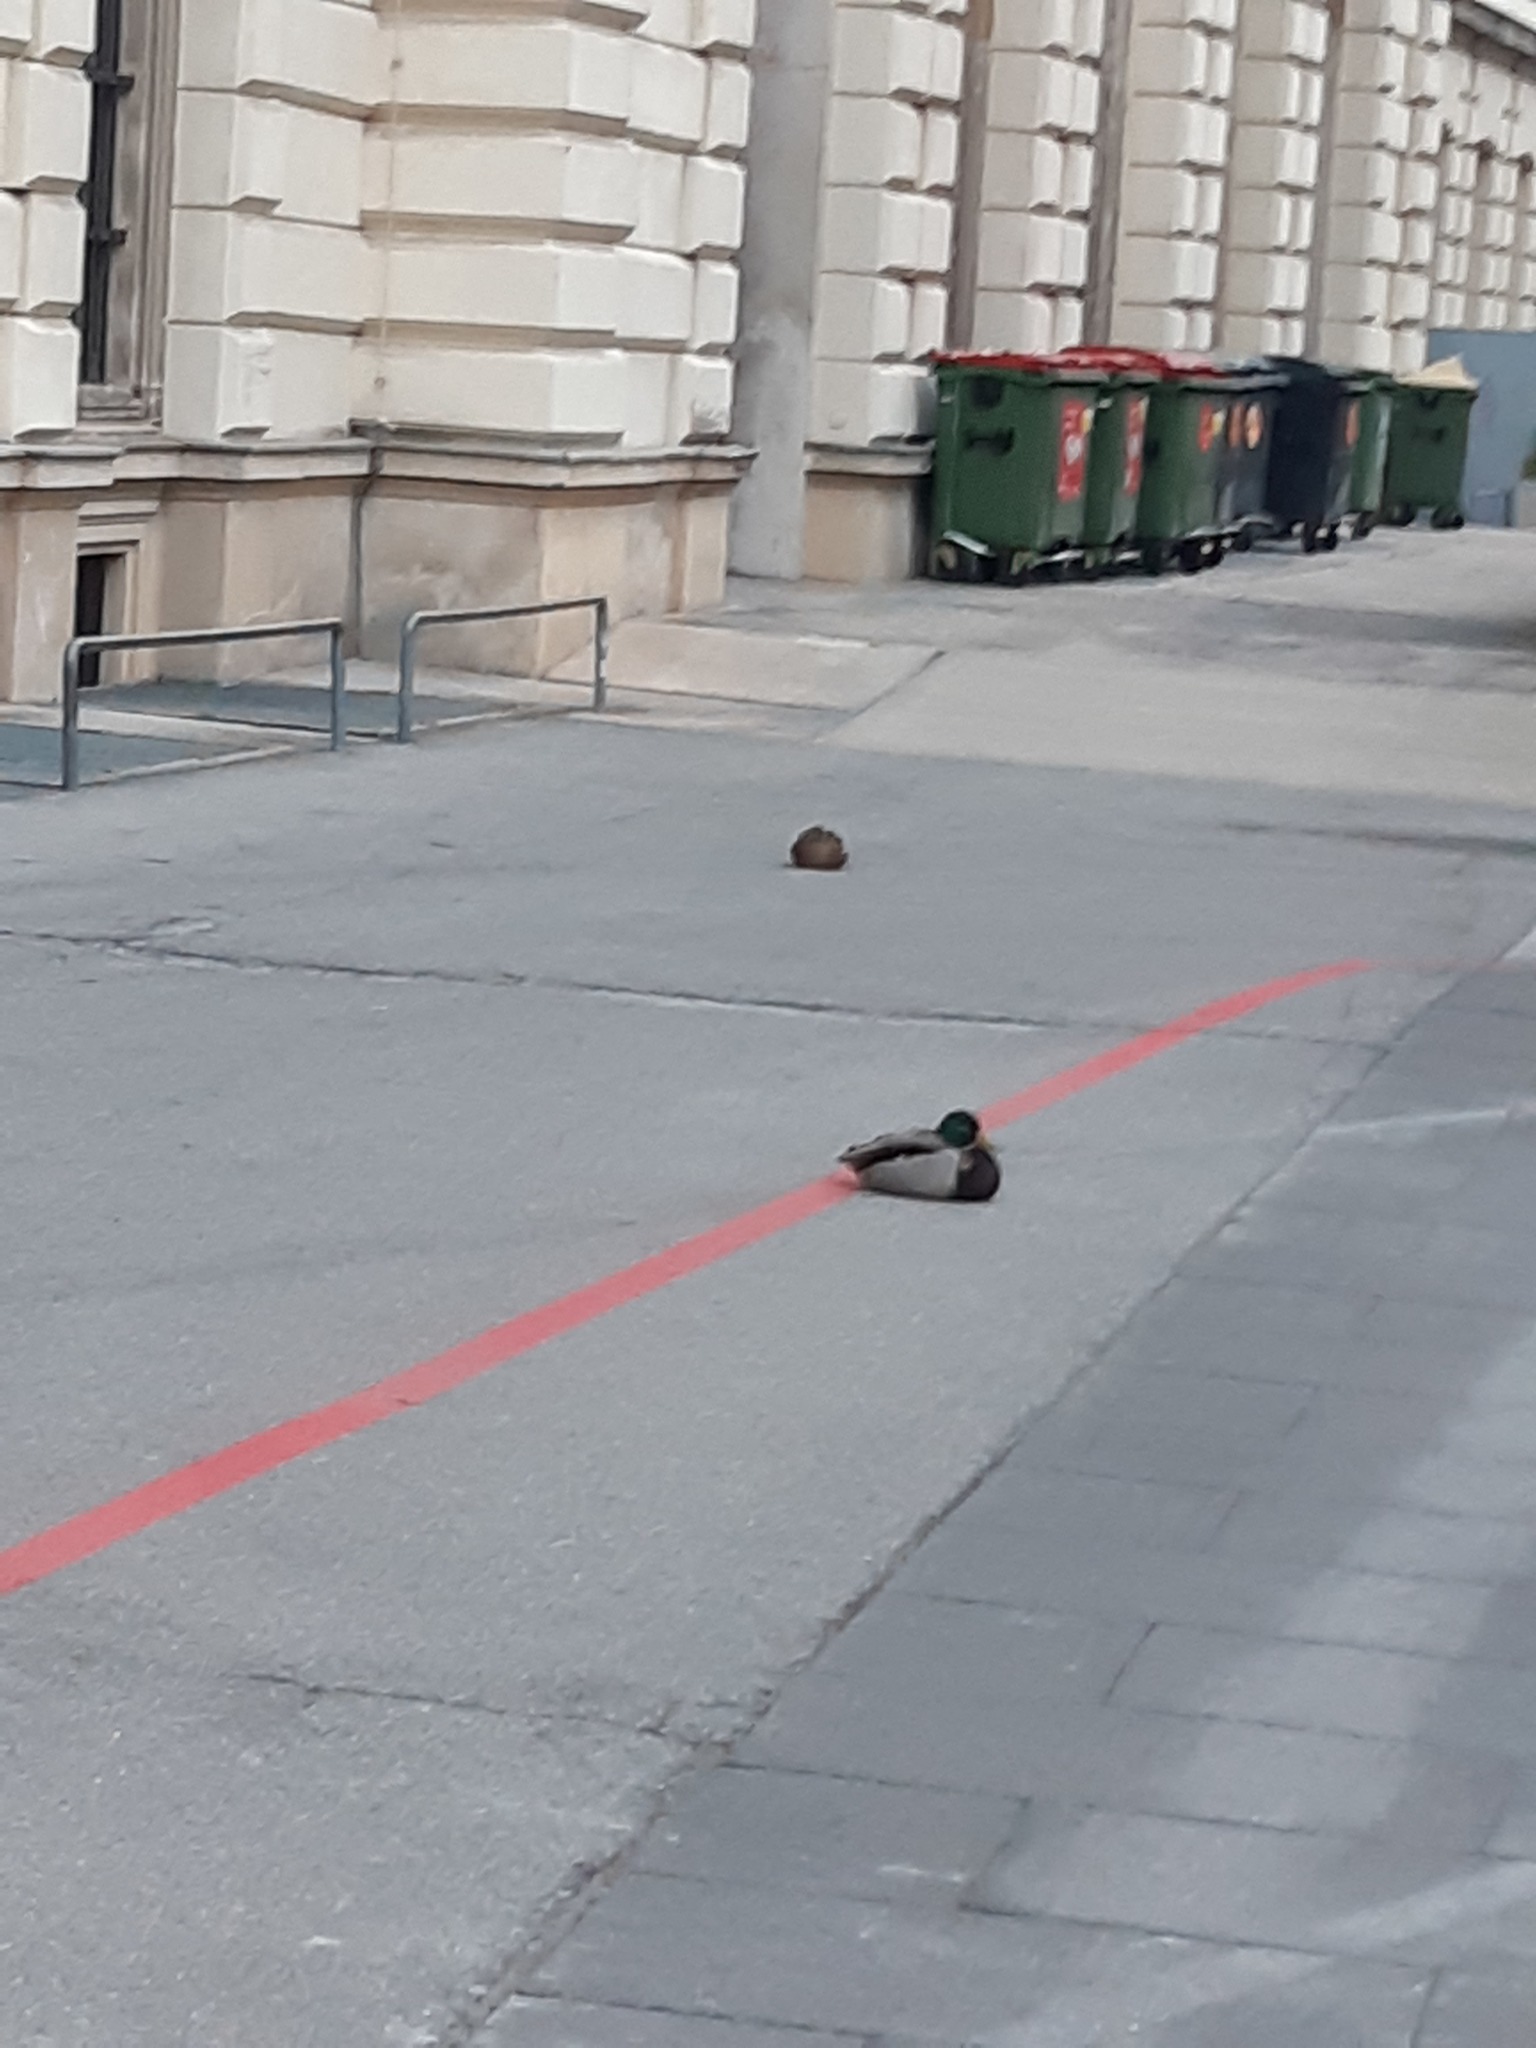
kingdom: Animalia
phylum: Chordata
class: Aves
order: Anseriformes
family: Anatidae
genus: Anas
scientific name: Anas platyrhynchos
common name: Mallard
